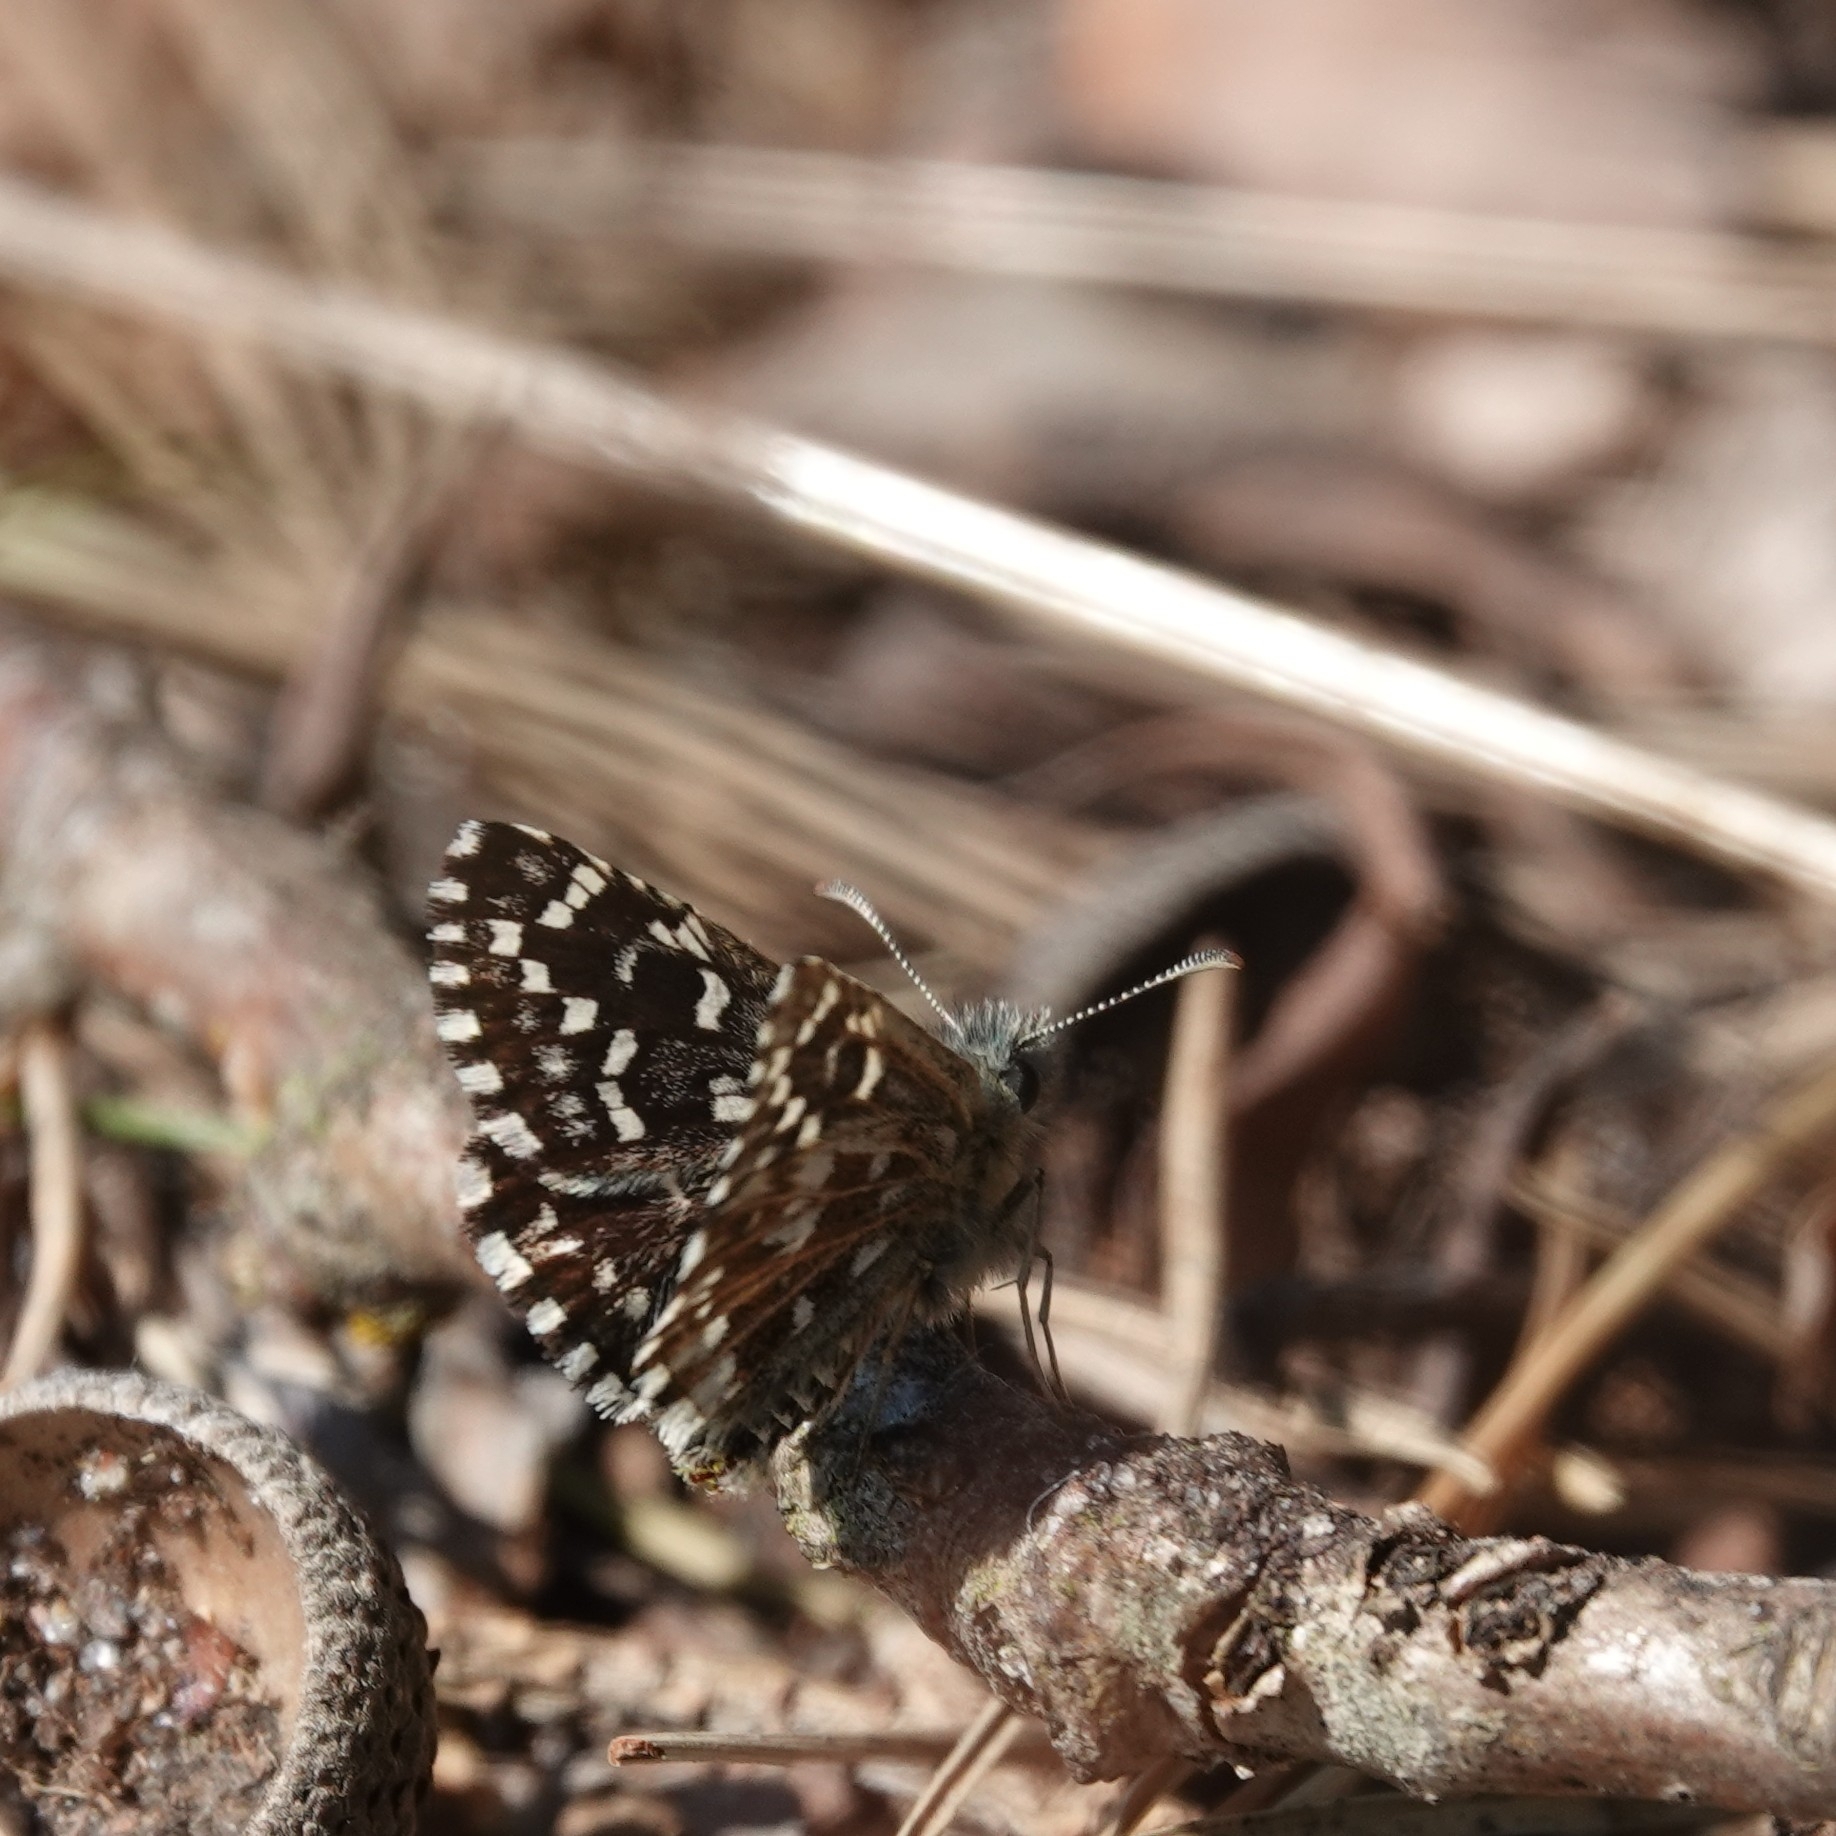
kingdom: Animalia
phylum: Arthropoda
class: Insecta
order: Lepidoptera
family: Hesperiidae
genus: Pyrgus
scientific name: Pyrgus malvae
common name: Grizzled skipper
